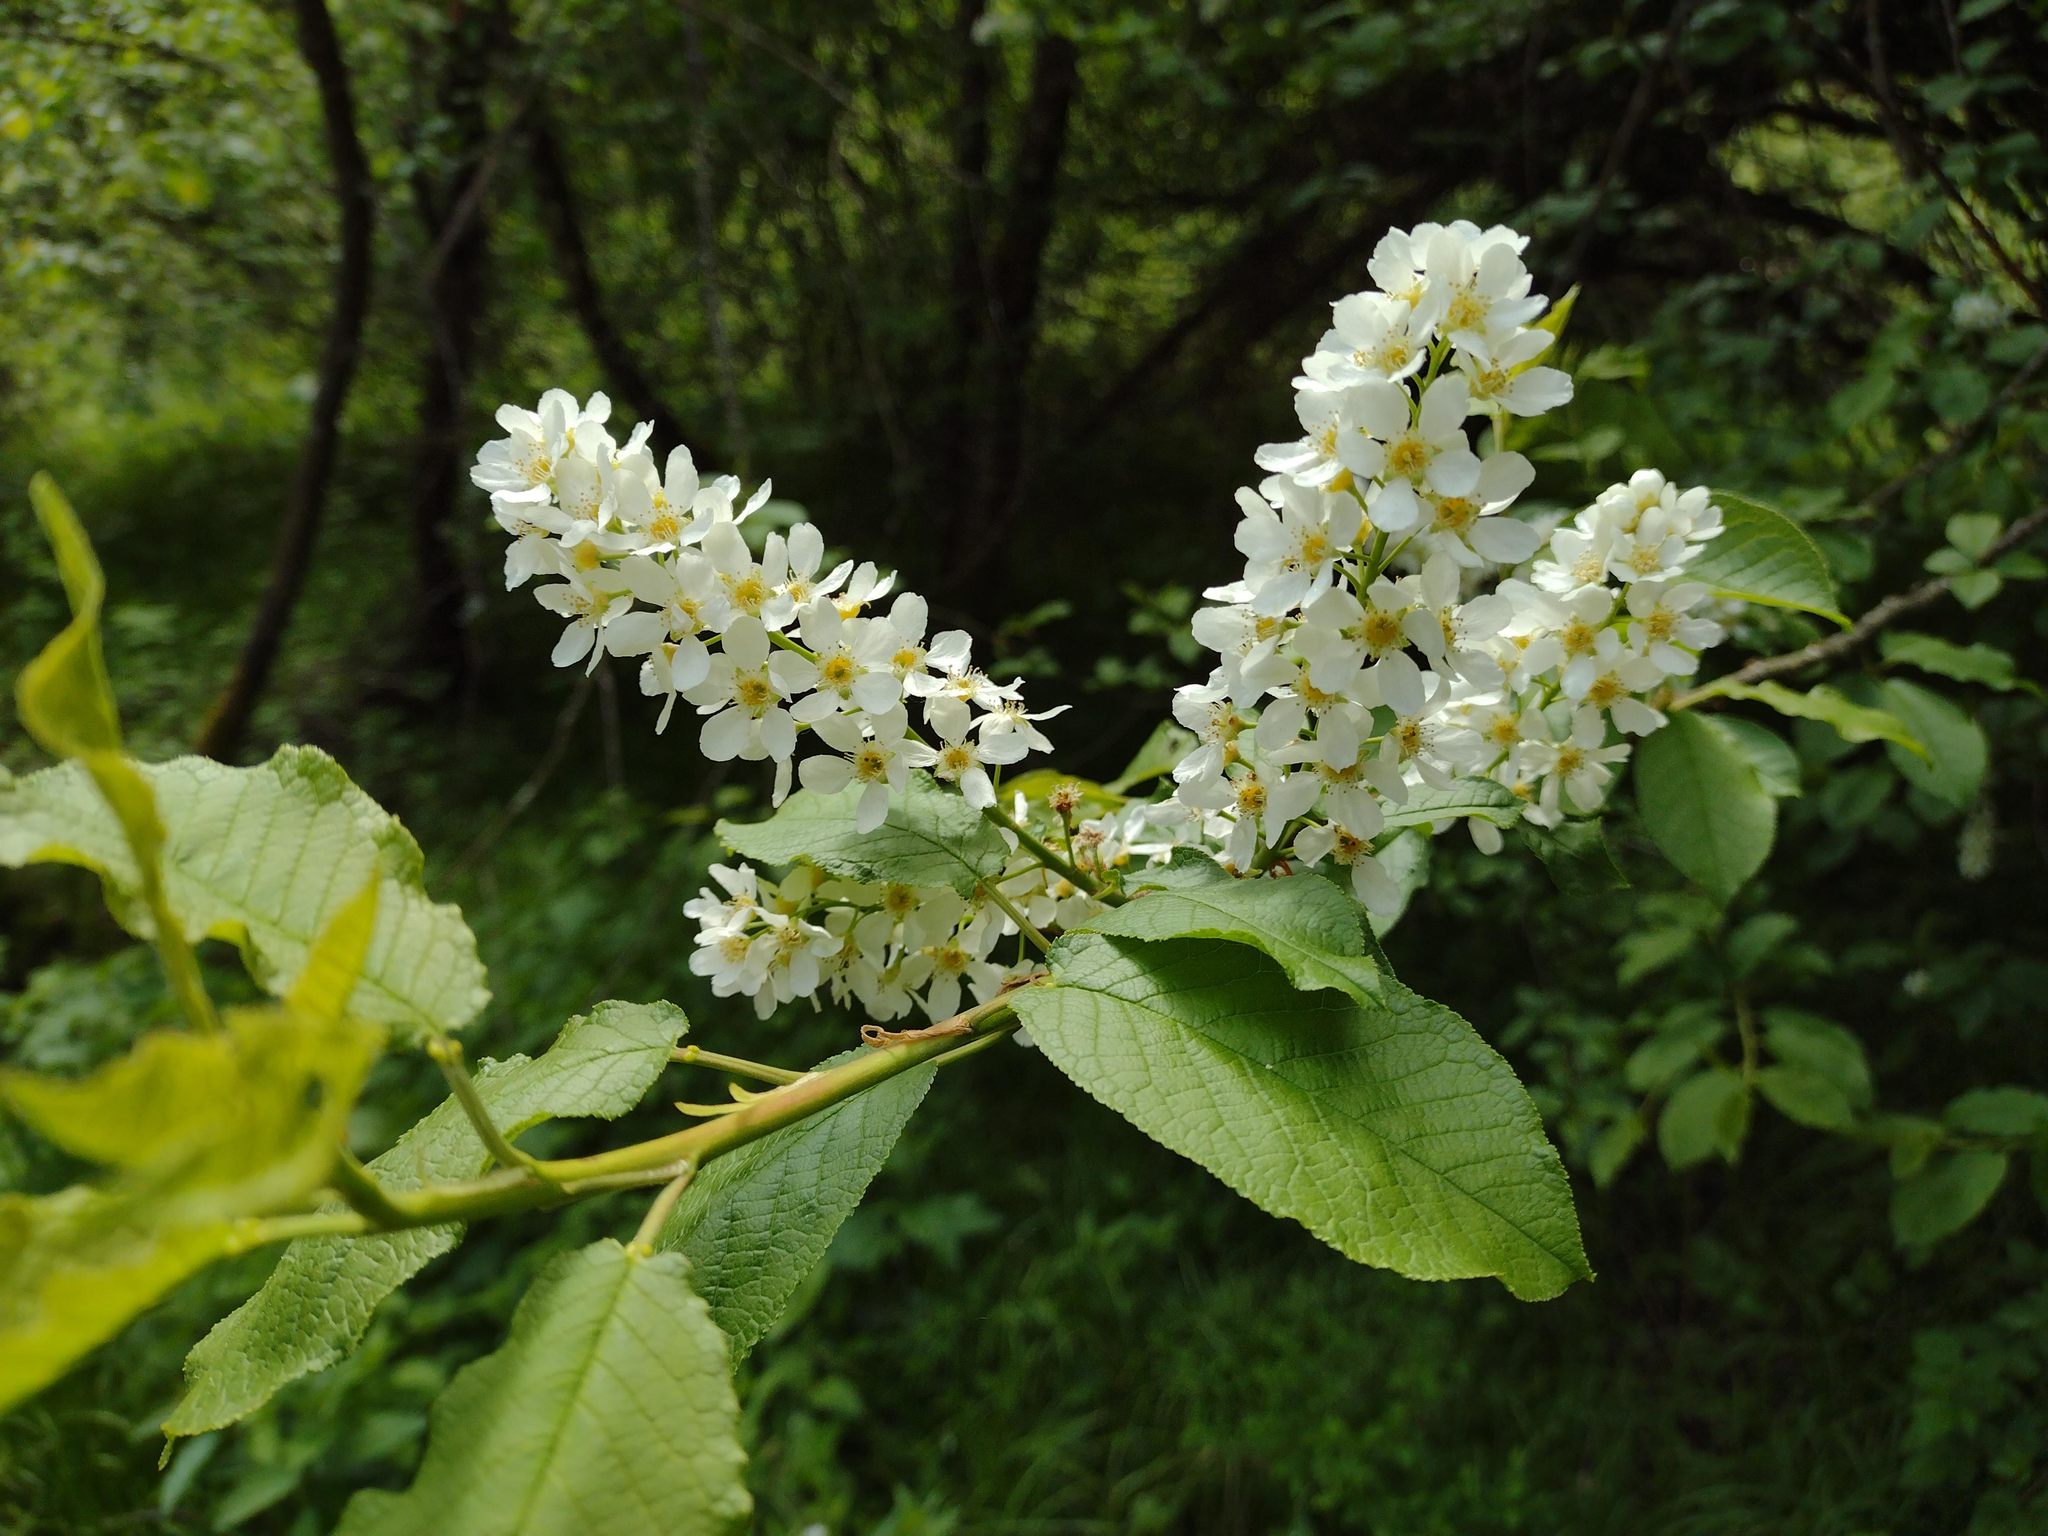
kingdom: Plantae
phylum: Tracheophyta
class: Magnoliopsida
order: Rosales
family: Rosaceae
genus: Prunus
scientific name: Prunus padus
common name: Bird cherry
